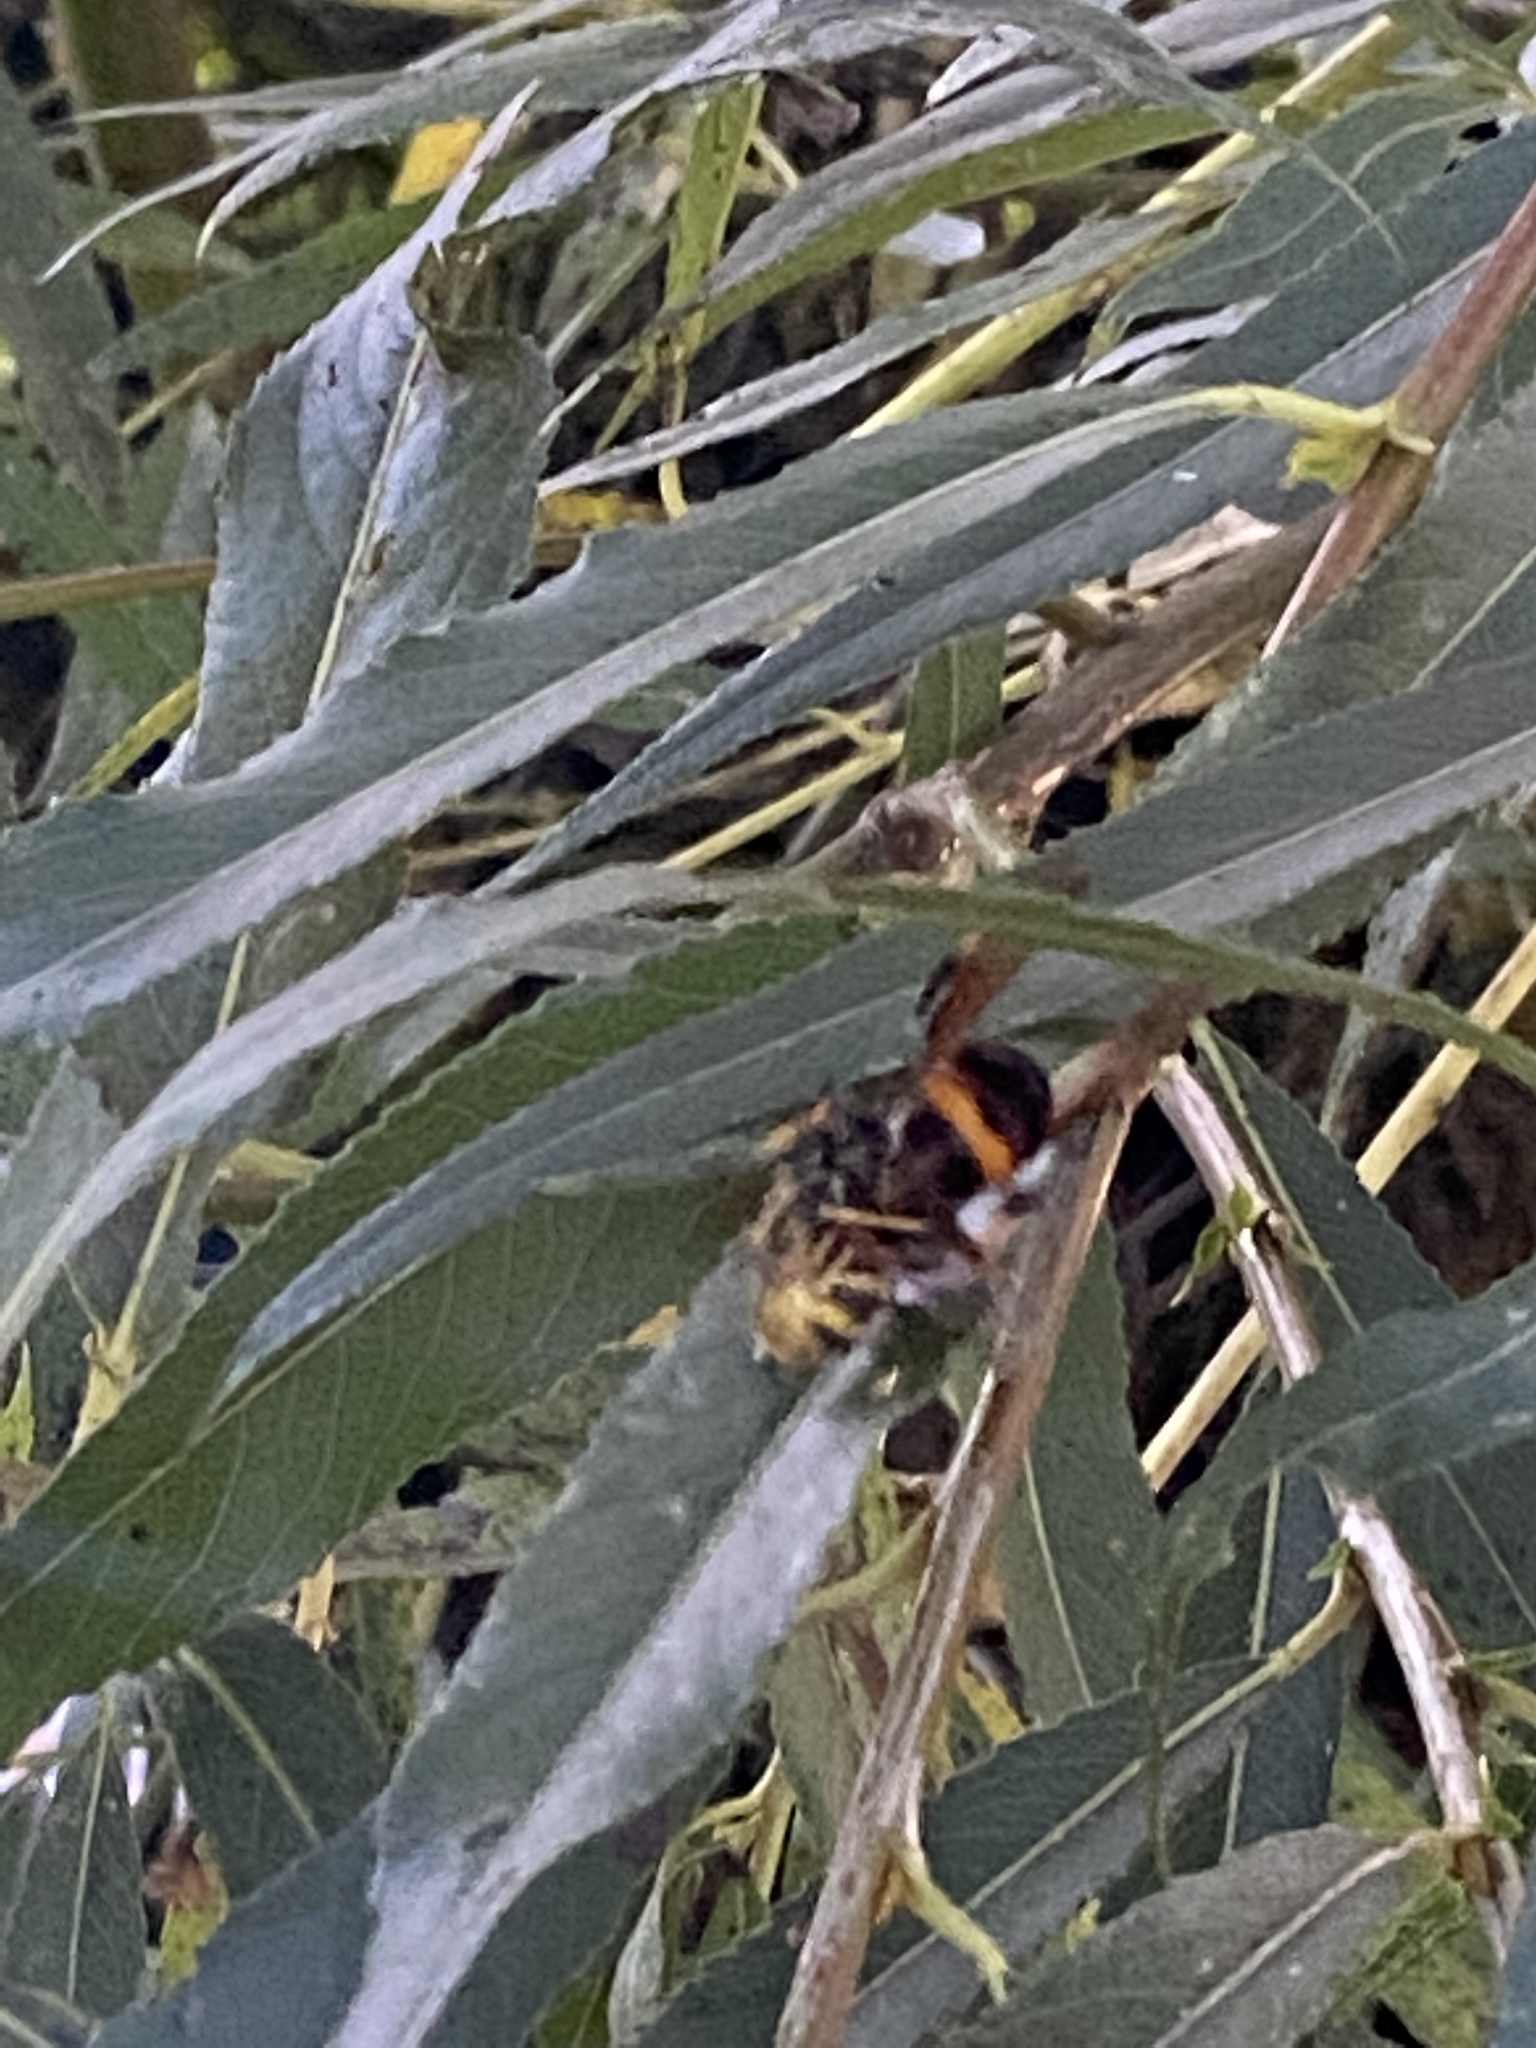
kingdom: Animalia
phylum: Arthropoda
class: Insecta
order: Hymenoptera
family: Vespidae
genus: Vespa
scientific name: Vespa velutina
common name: Asian hornet
